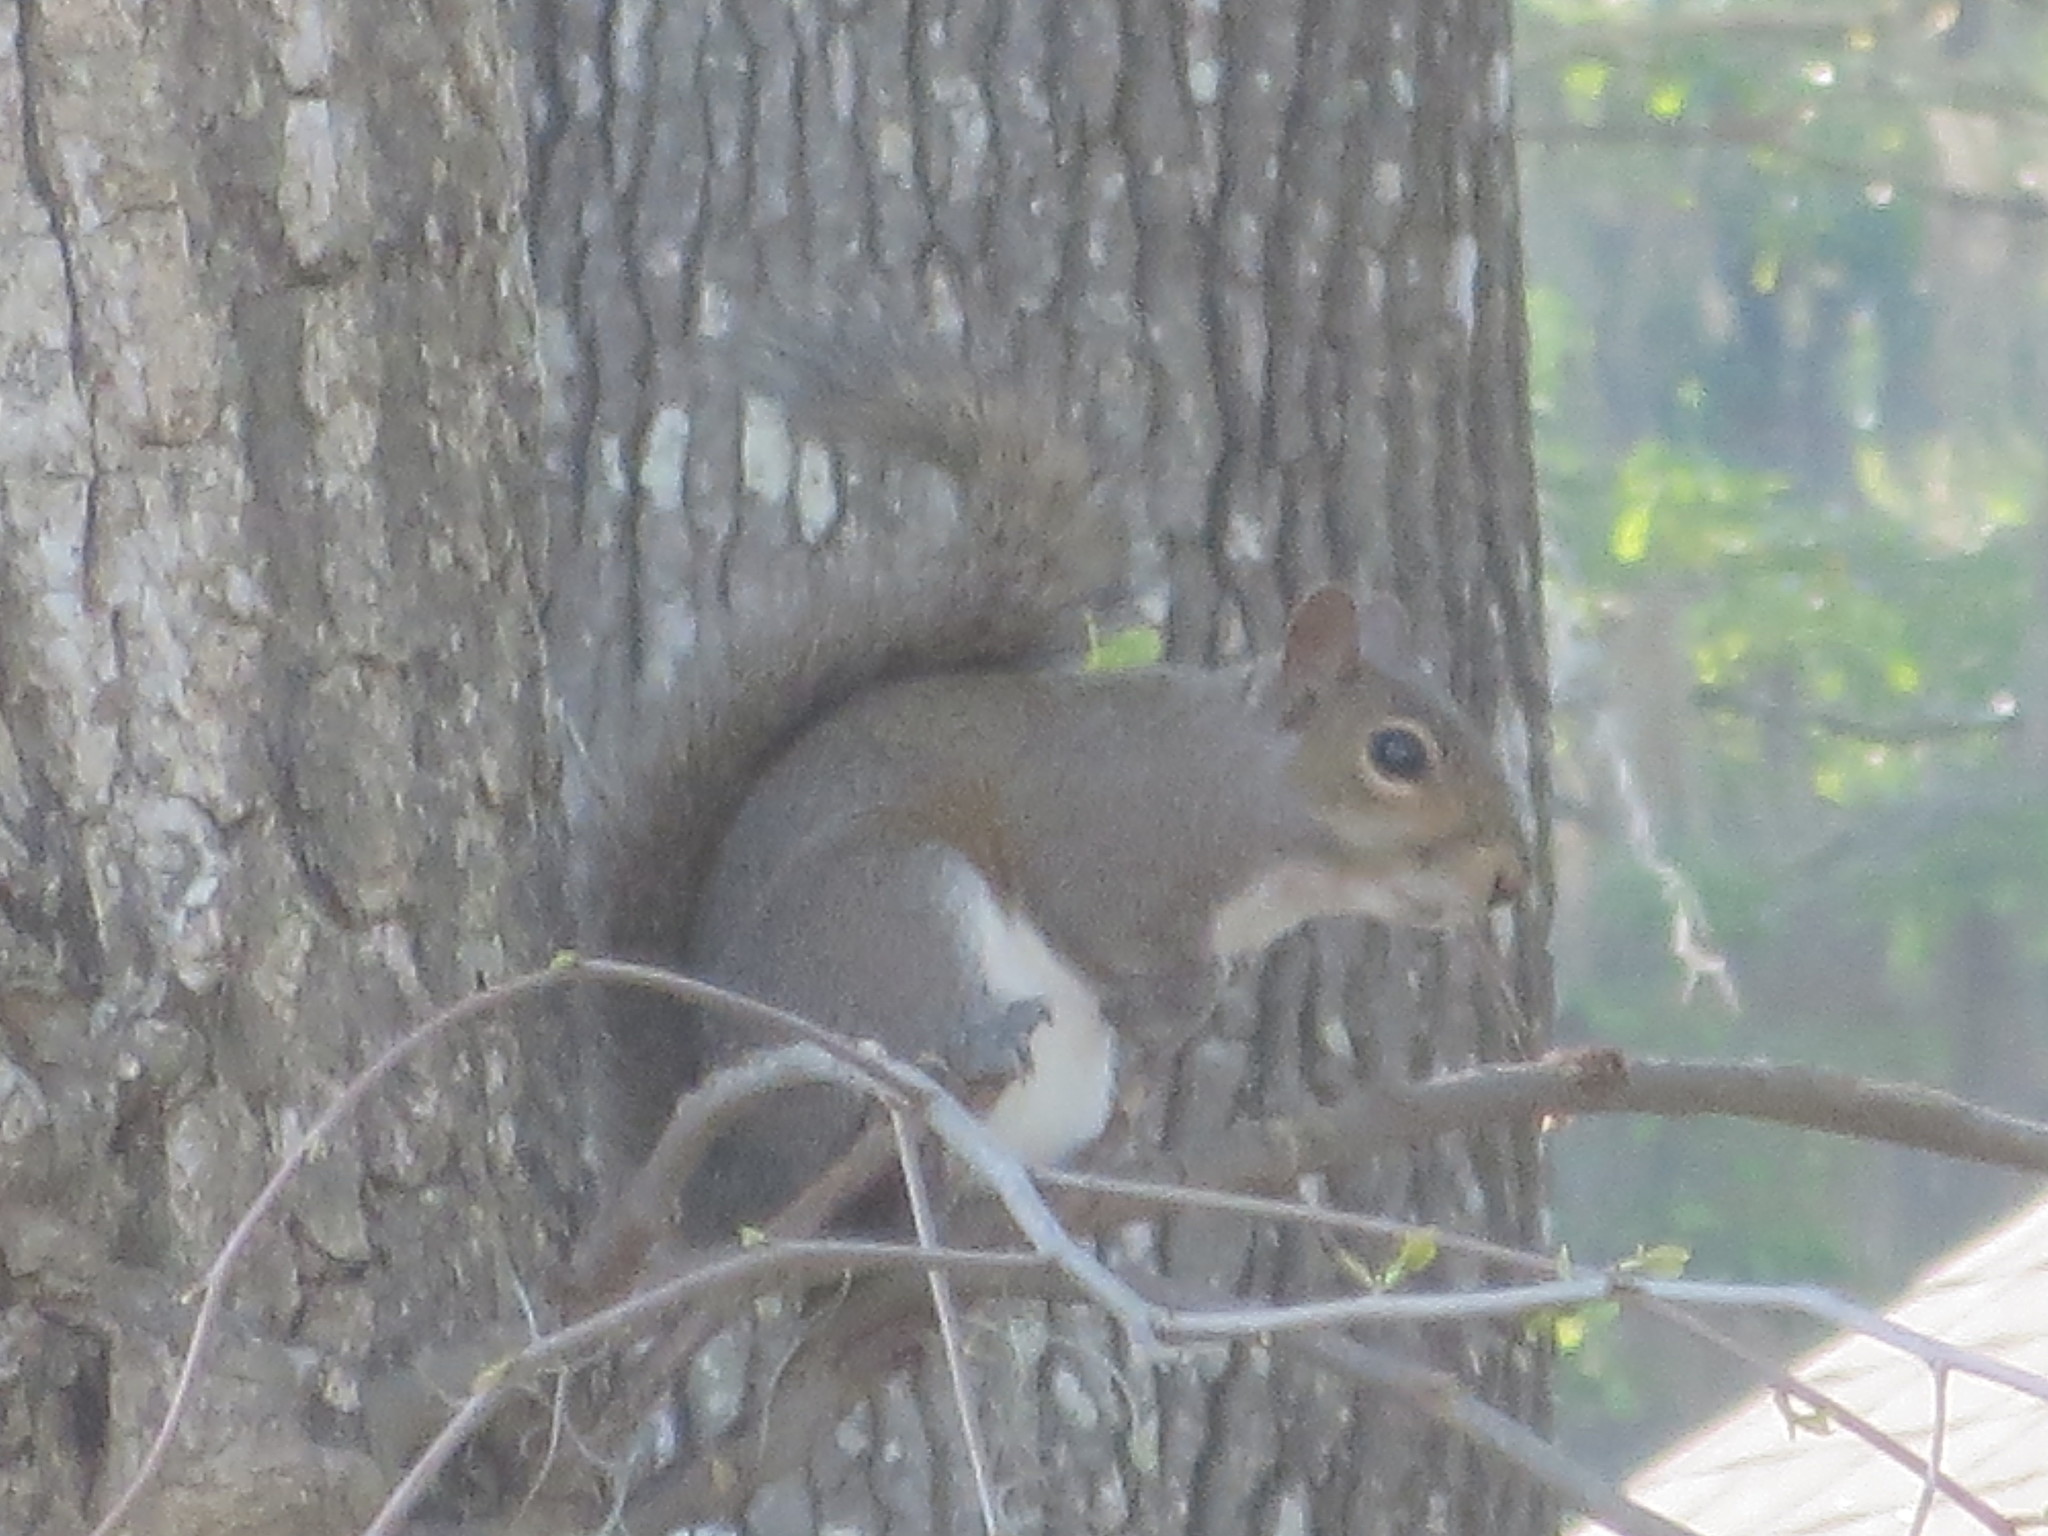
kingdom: Animalia
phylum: Chordata
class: Mammalia
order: Rodentia
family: Sciuridae
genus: Sciurus
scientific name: Sciurus carolinensis
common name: Eastern gray squirrel
